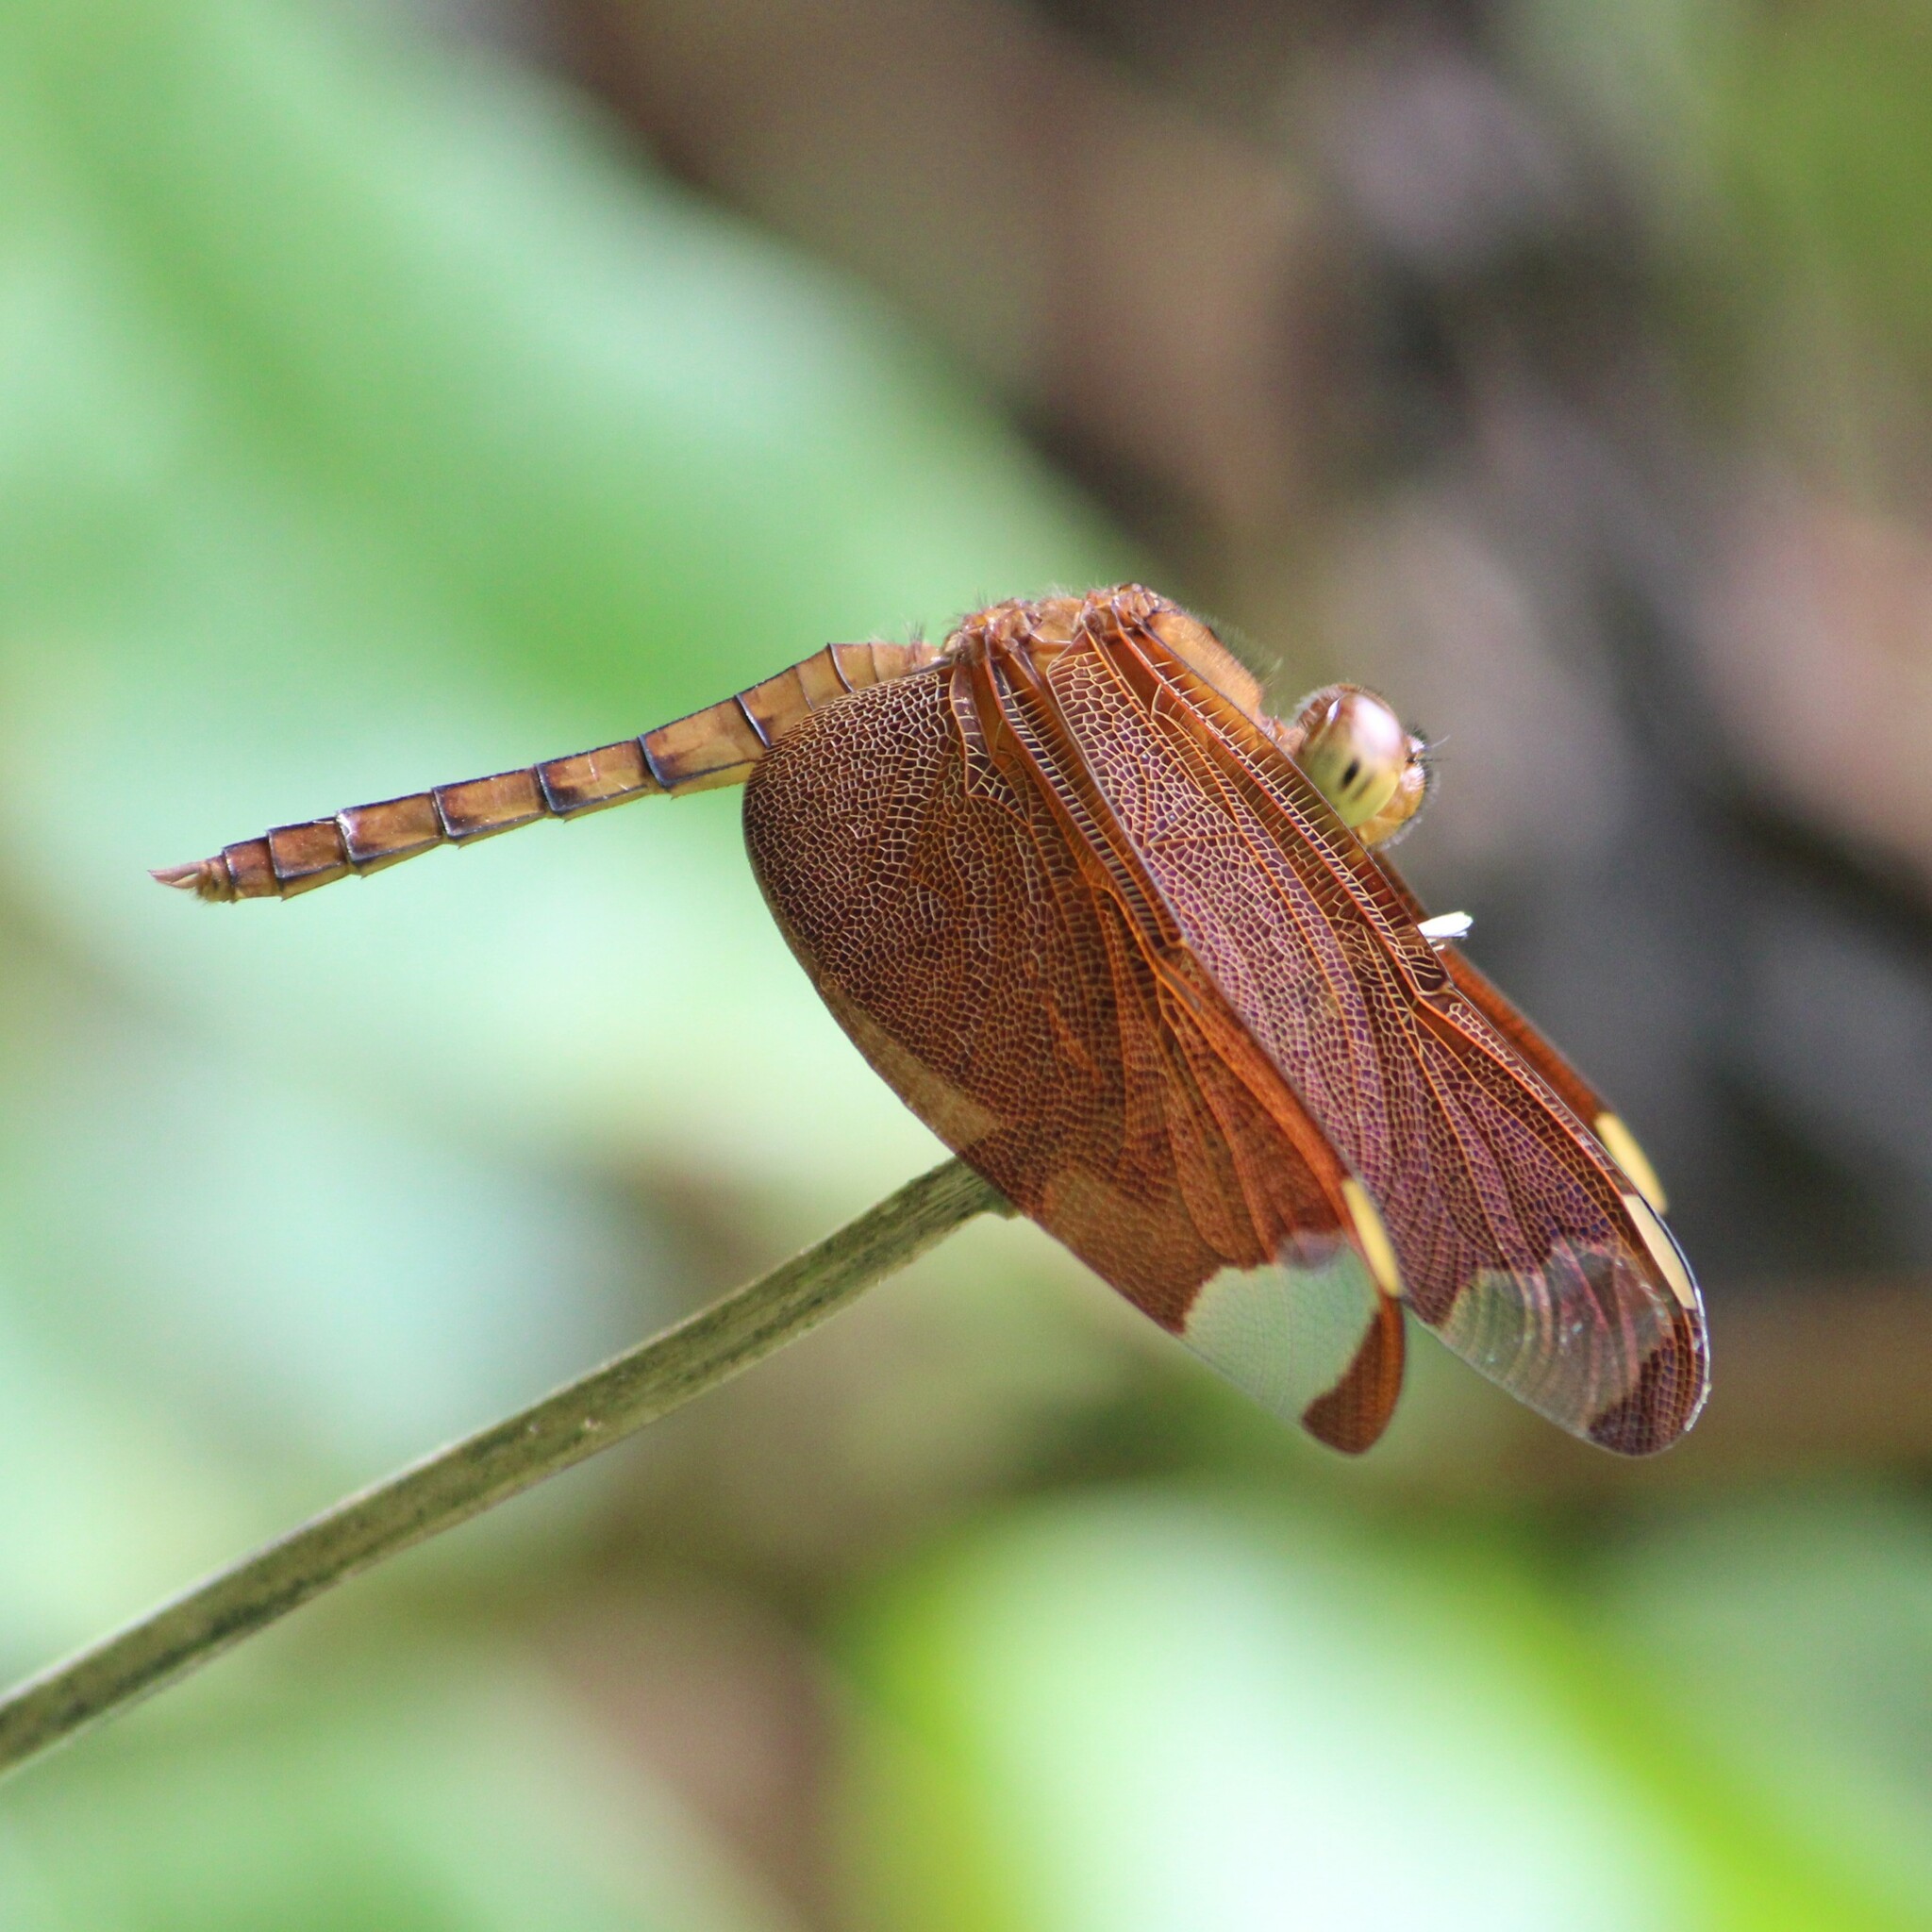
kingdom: Animalia
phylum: Arthropoda
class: Insecta
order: Odonata
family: Libellulidae
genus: Neurothemis
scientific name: Neurothemis fulvia
